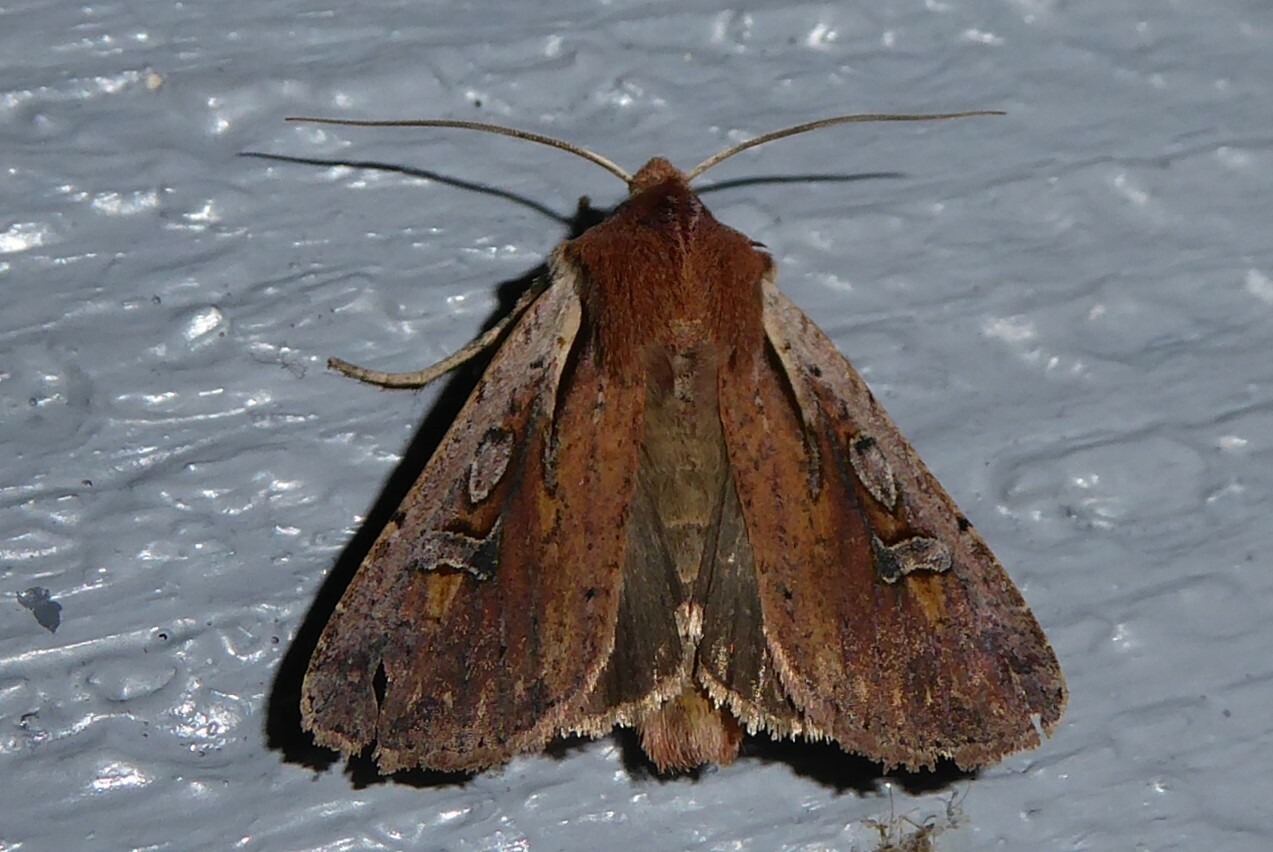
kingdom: Animalia
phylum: Arthropoda
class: Insecta
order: Lepidoptera
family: Noctuidae
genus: Ichneutica
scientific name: Ichneutica atristriga
